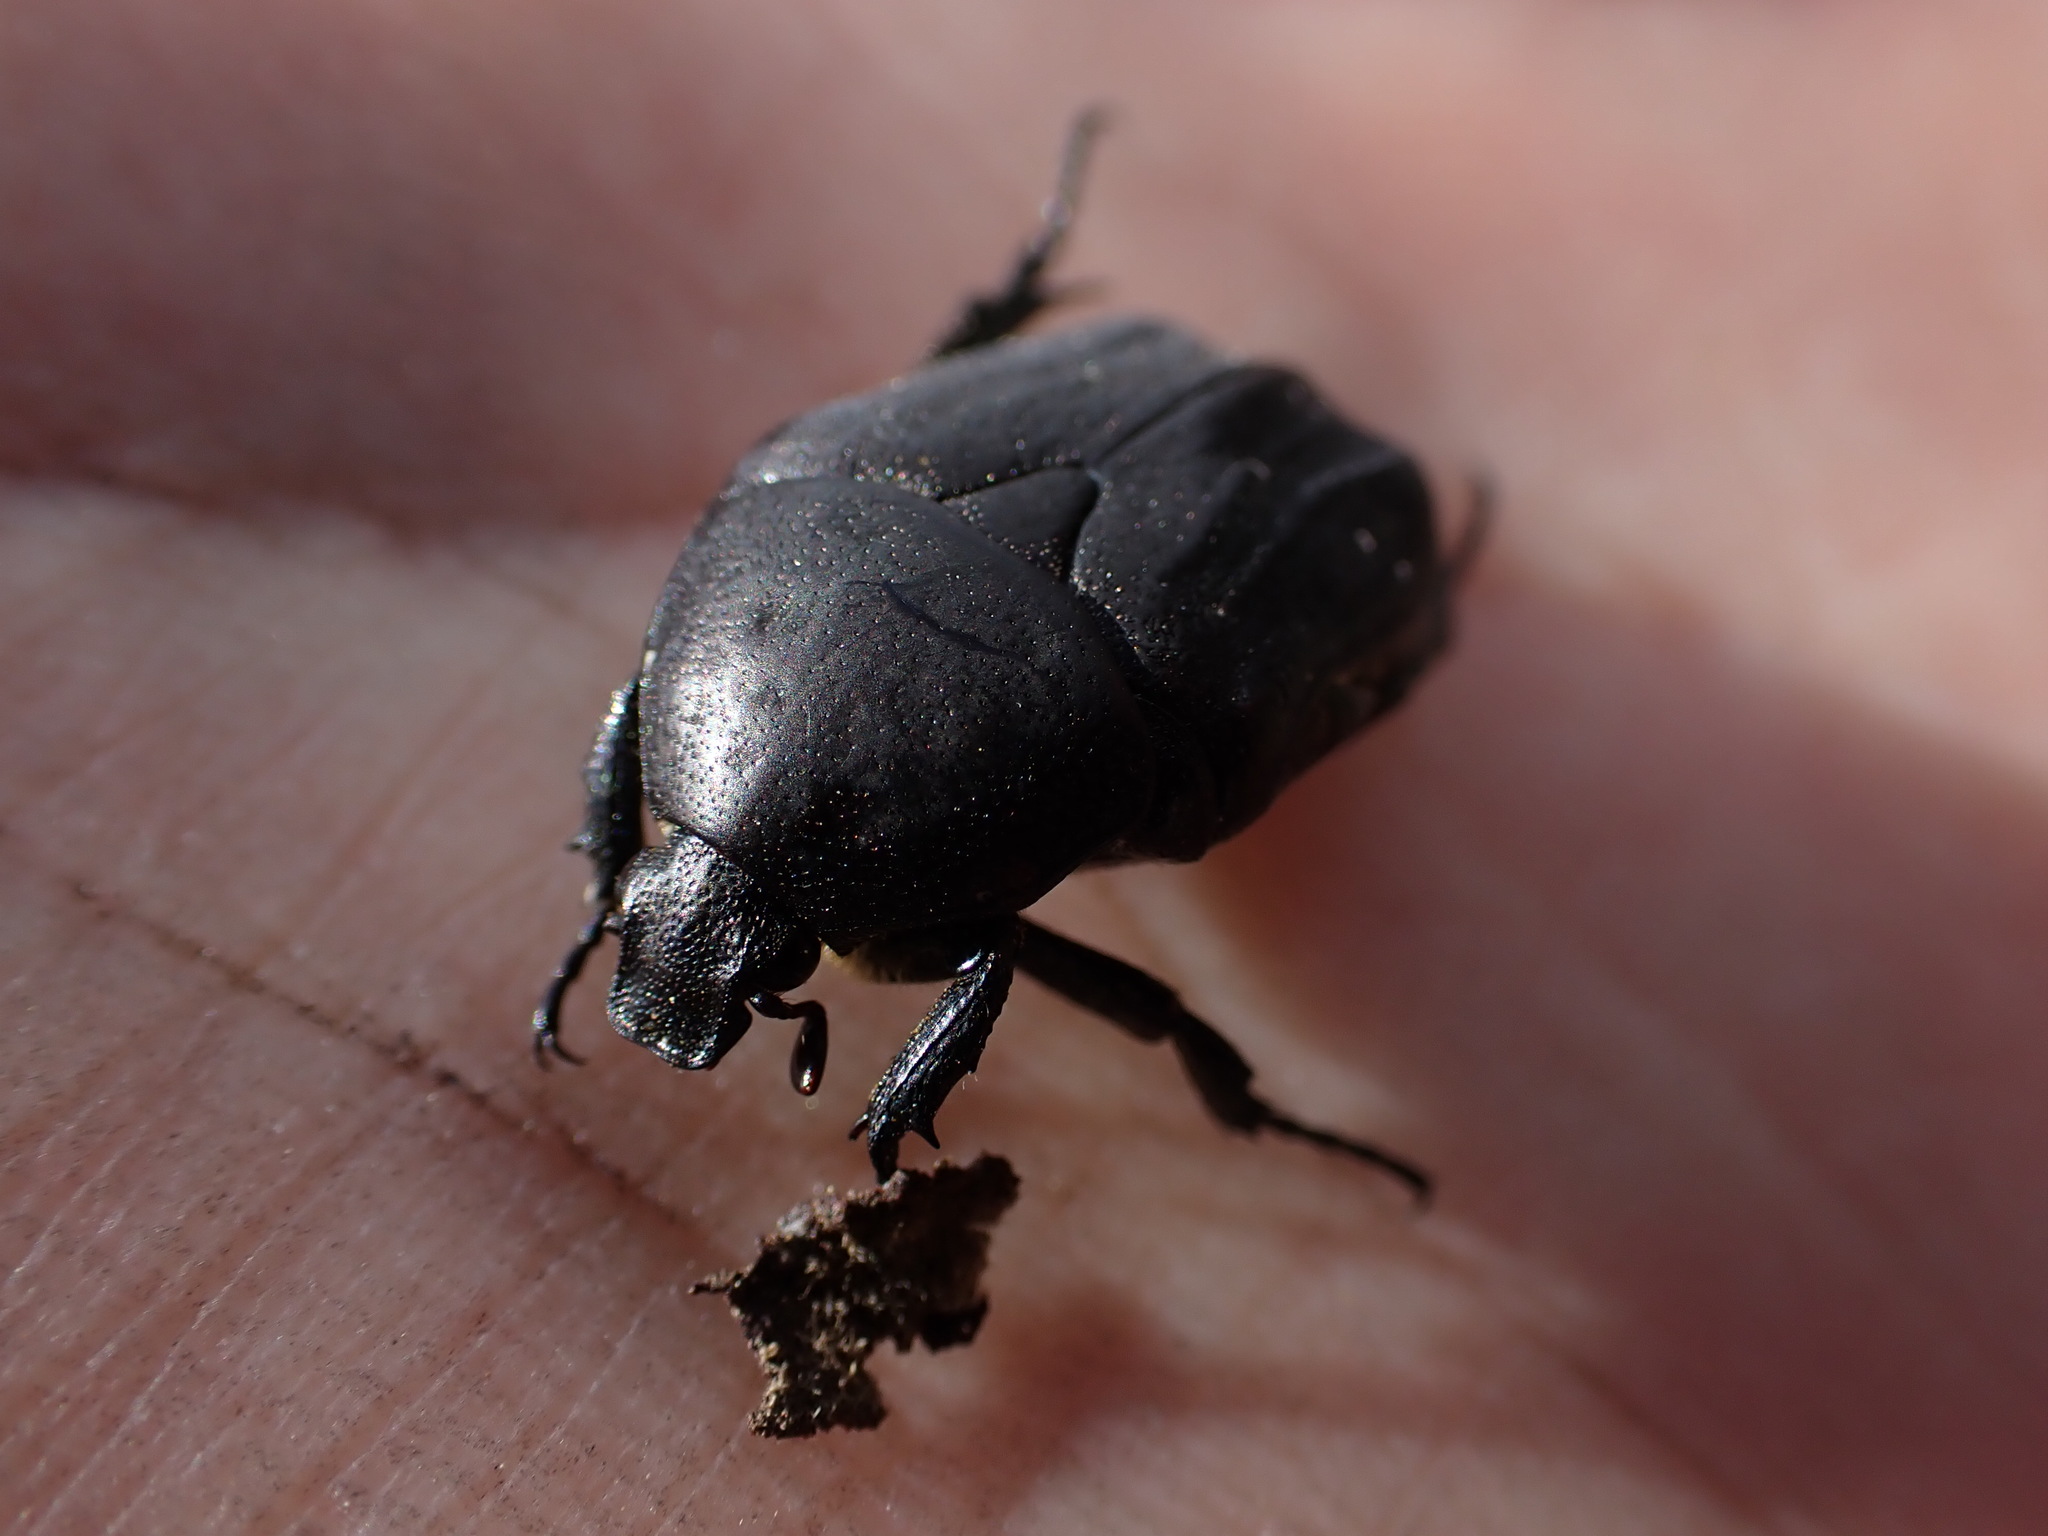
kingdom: Animalia
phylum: Arthropoda
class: Insecta
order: Coleoptera
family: Scarabaeidae
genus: Protaetia
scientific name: Protaetia morio
